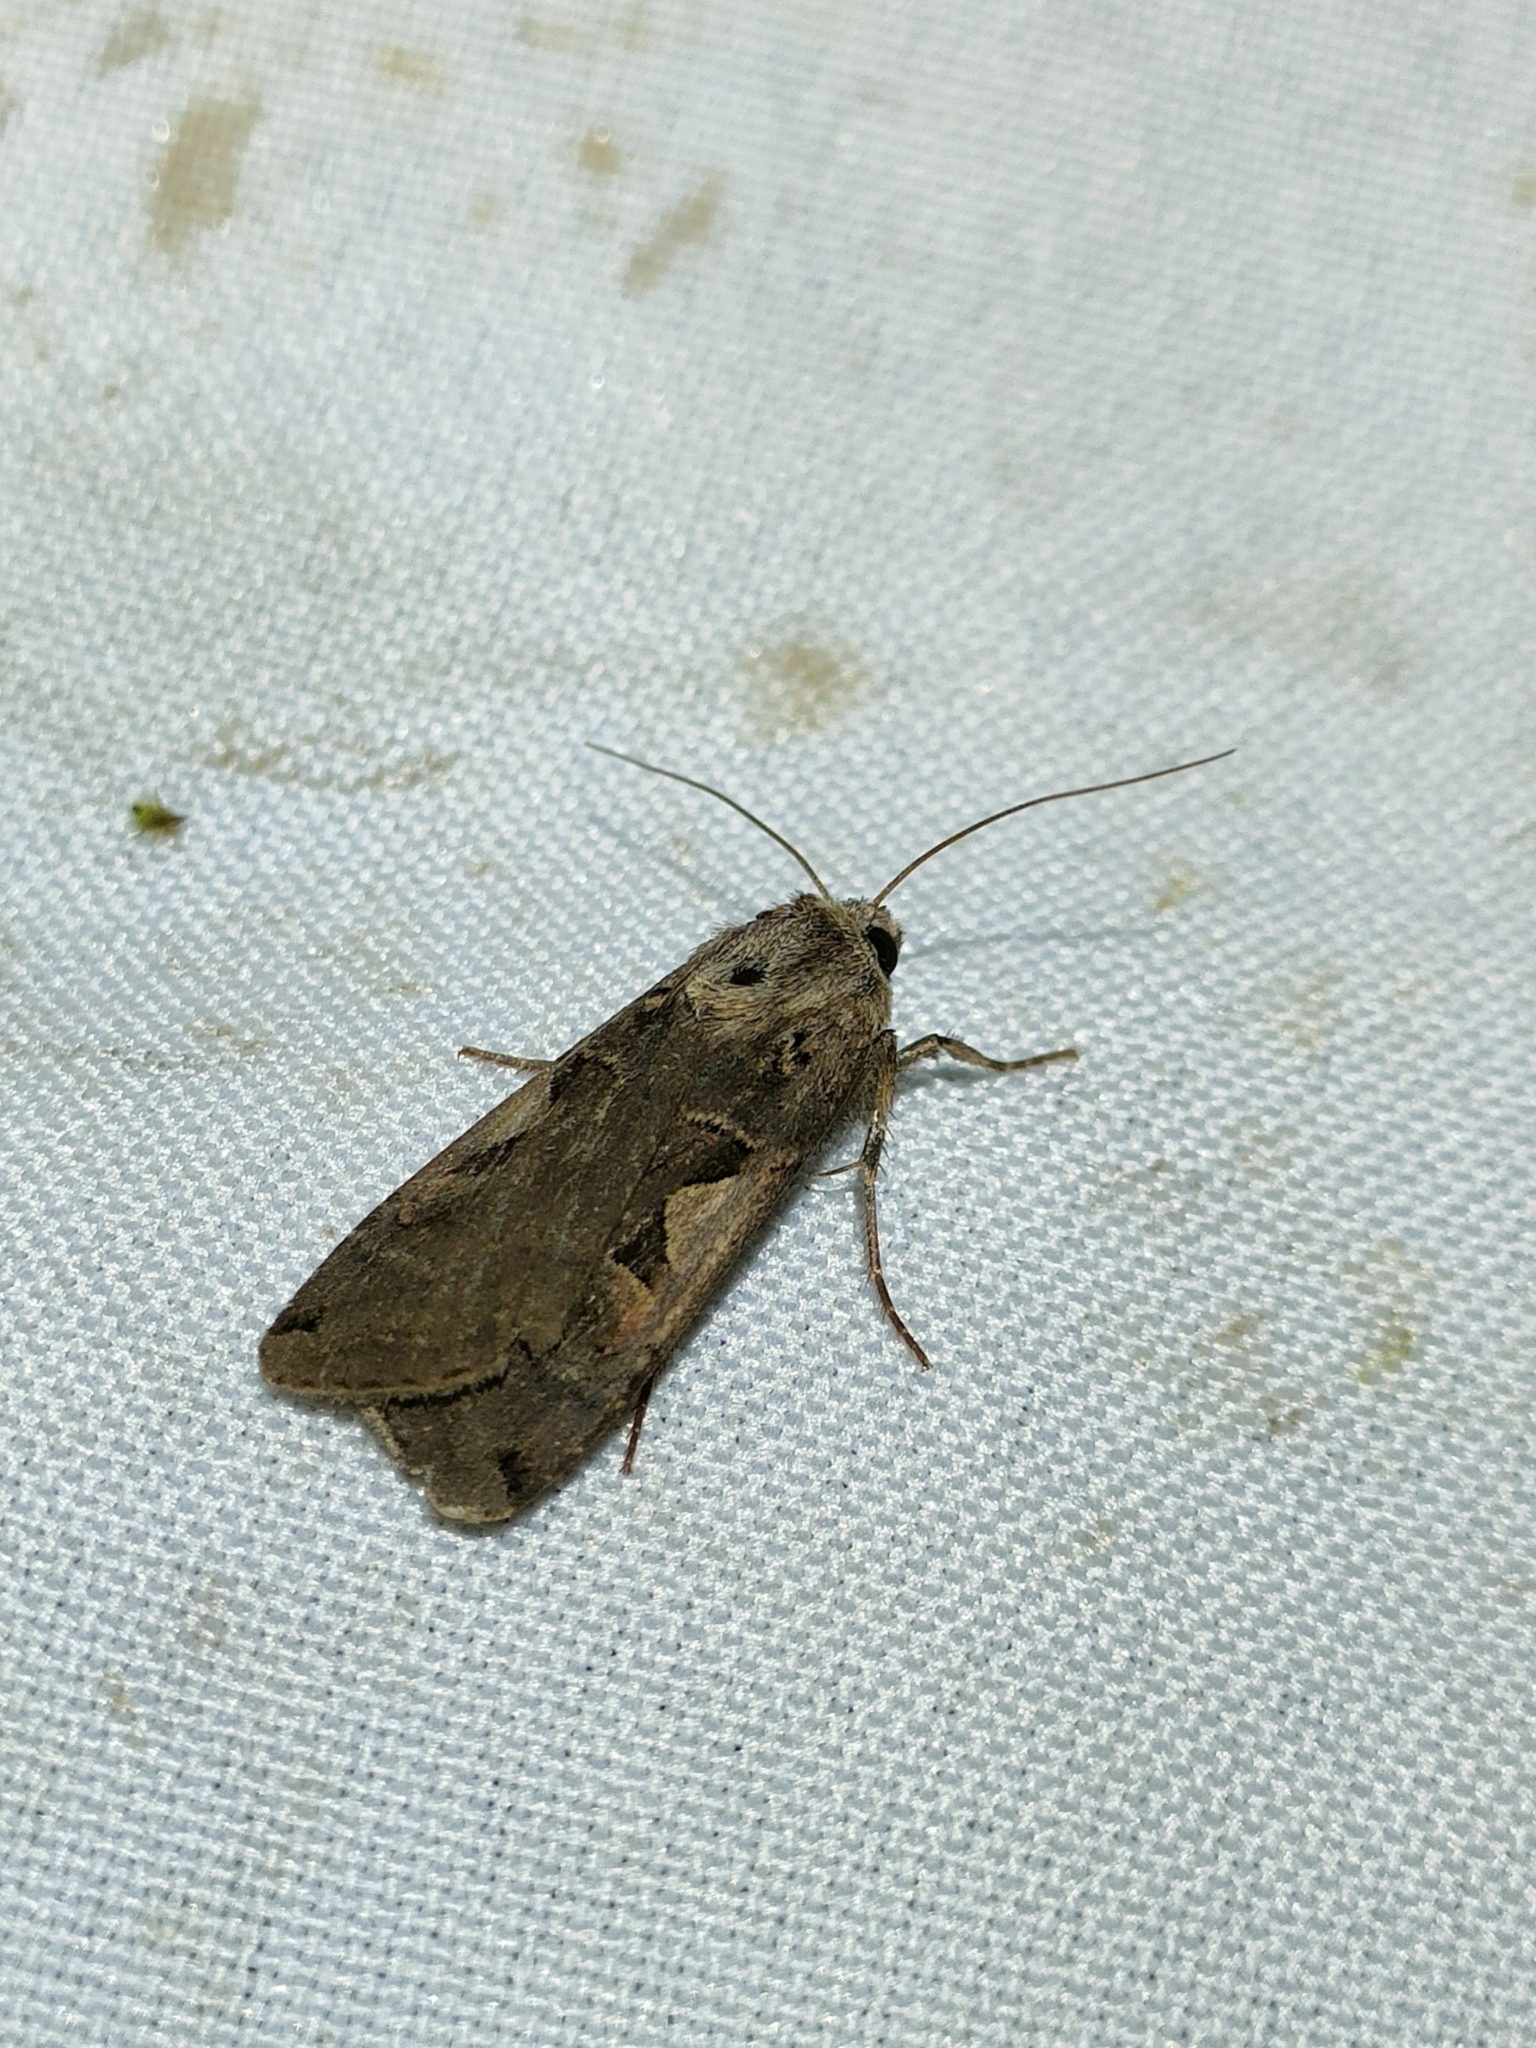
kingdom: Animalia
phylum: Arthropoda
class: Insecta
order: Lepidoptera
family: Noctuidae
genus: Xestia
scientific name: Xestia c-nigrum
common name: Setaceous hebrew character
